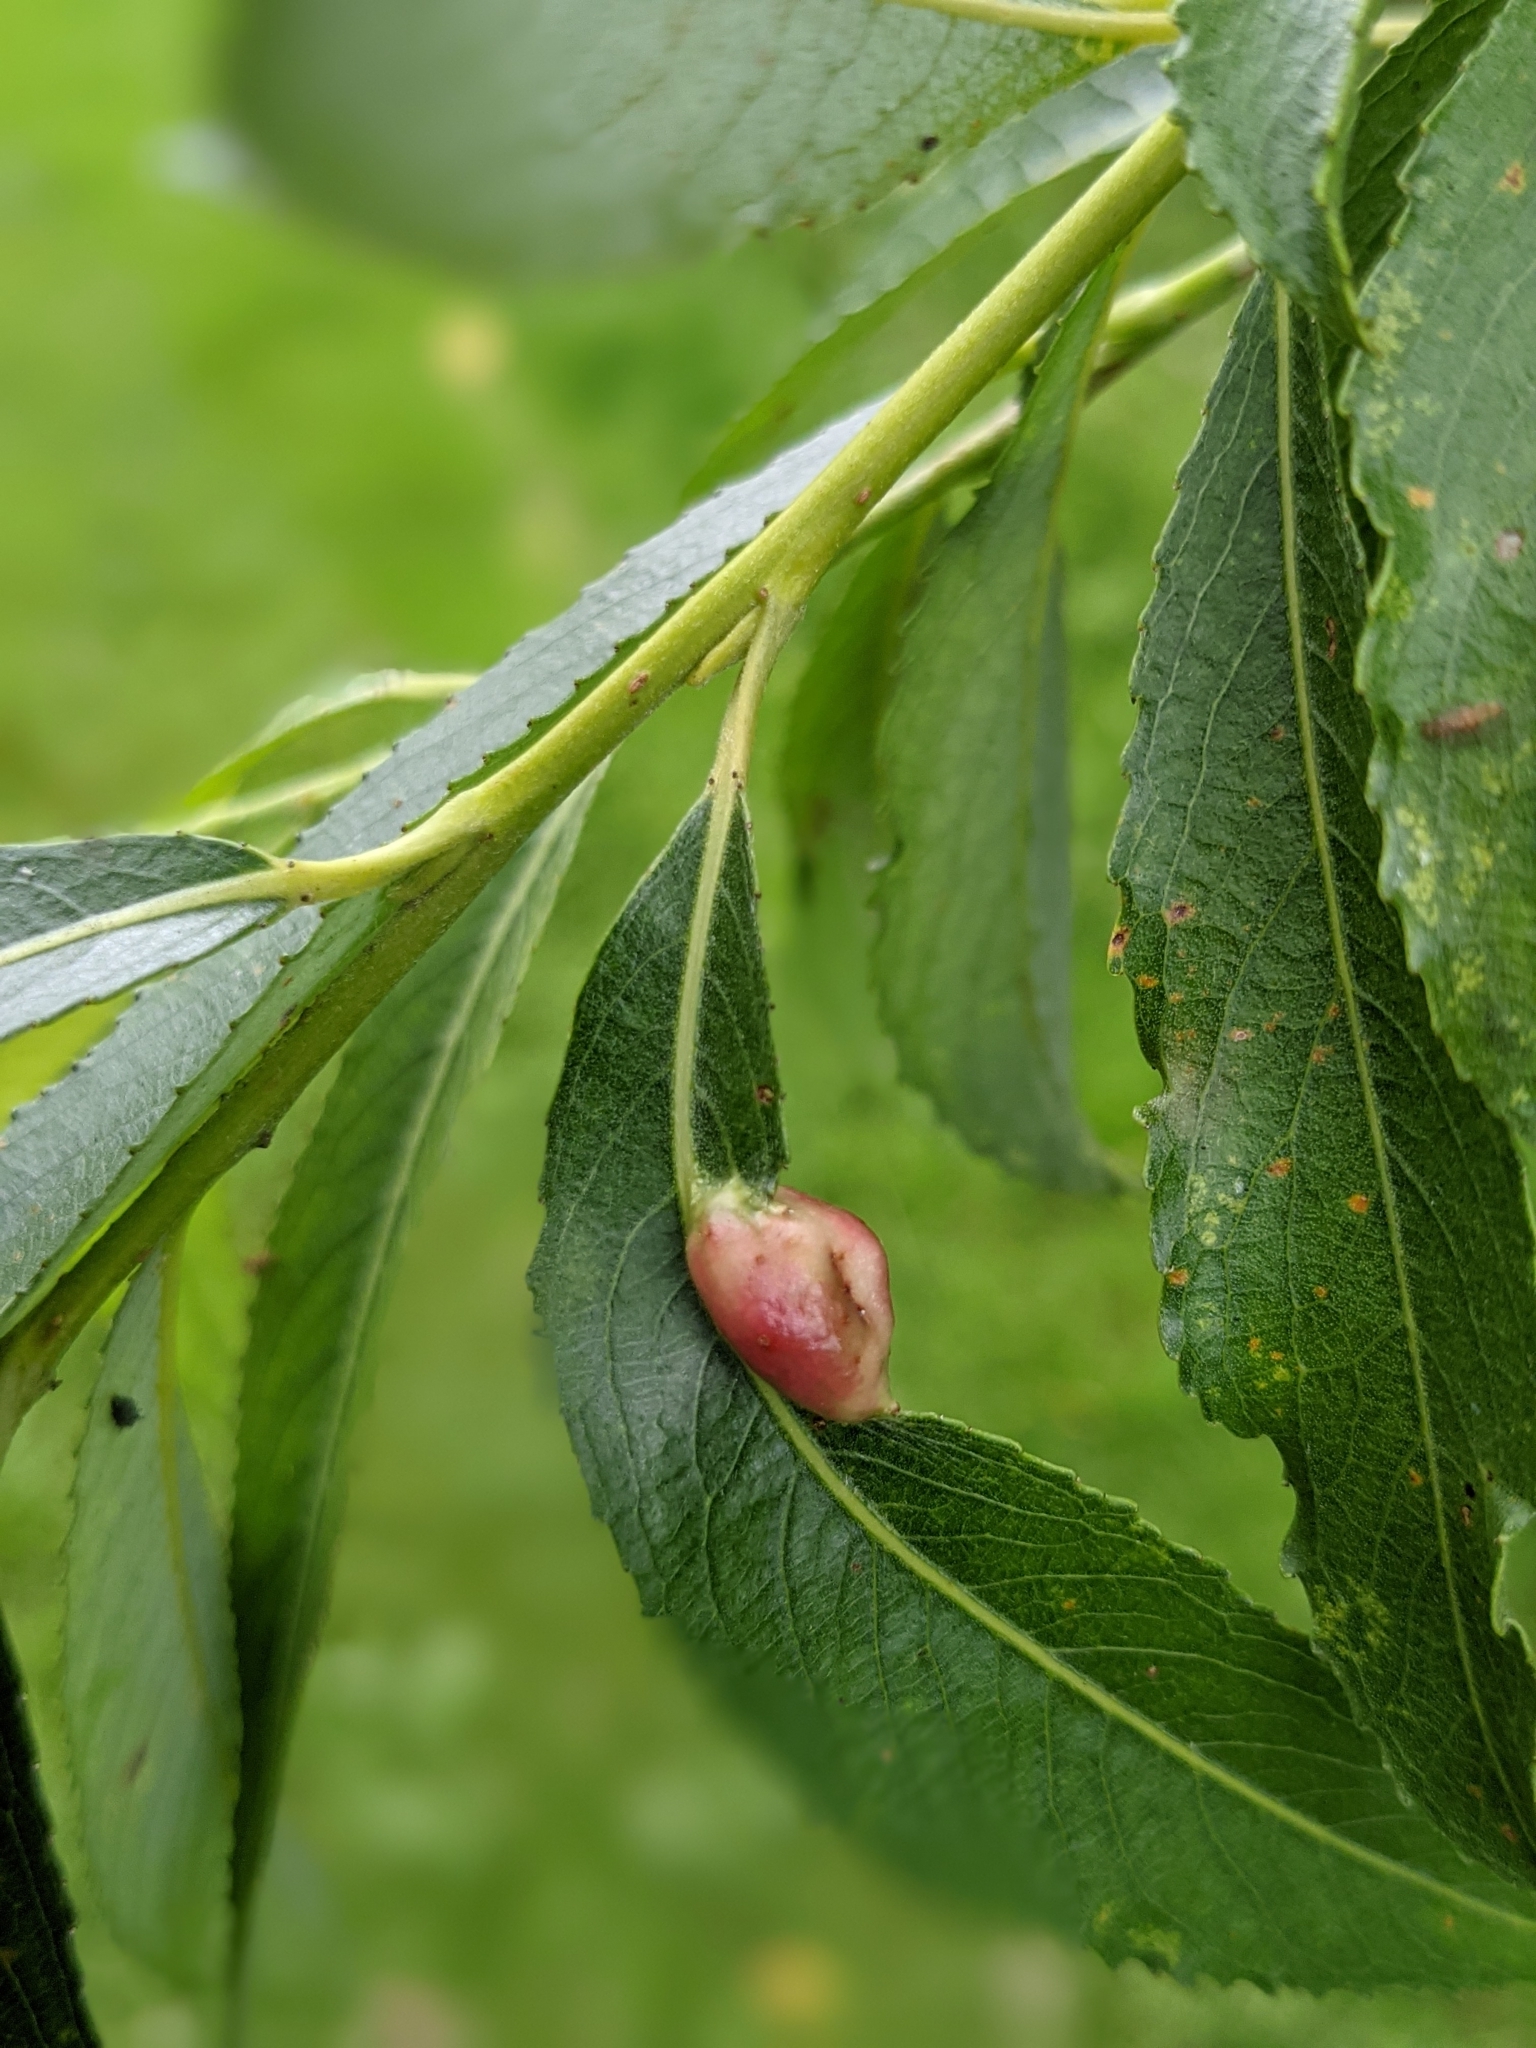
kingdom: Animalia
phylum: Arthropoda
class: Insecta
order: Hymenoptera
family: Tenthredinidae
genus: Pontania
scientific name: Pontania proxima
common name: Common sawfly
